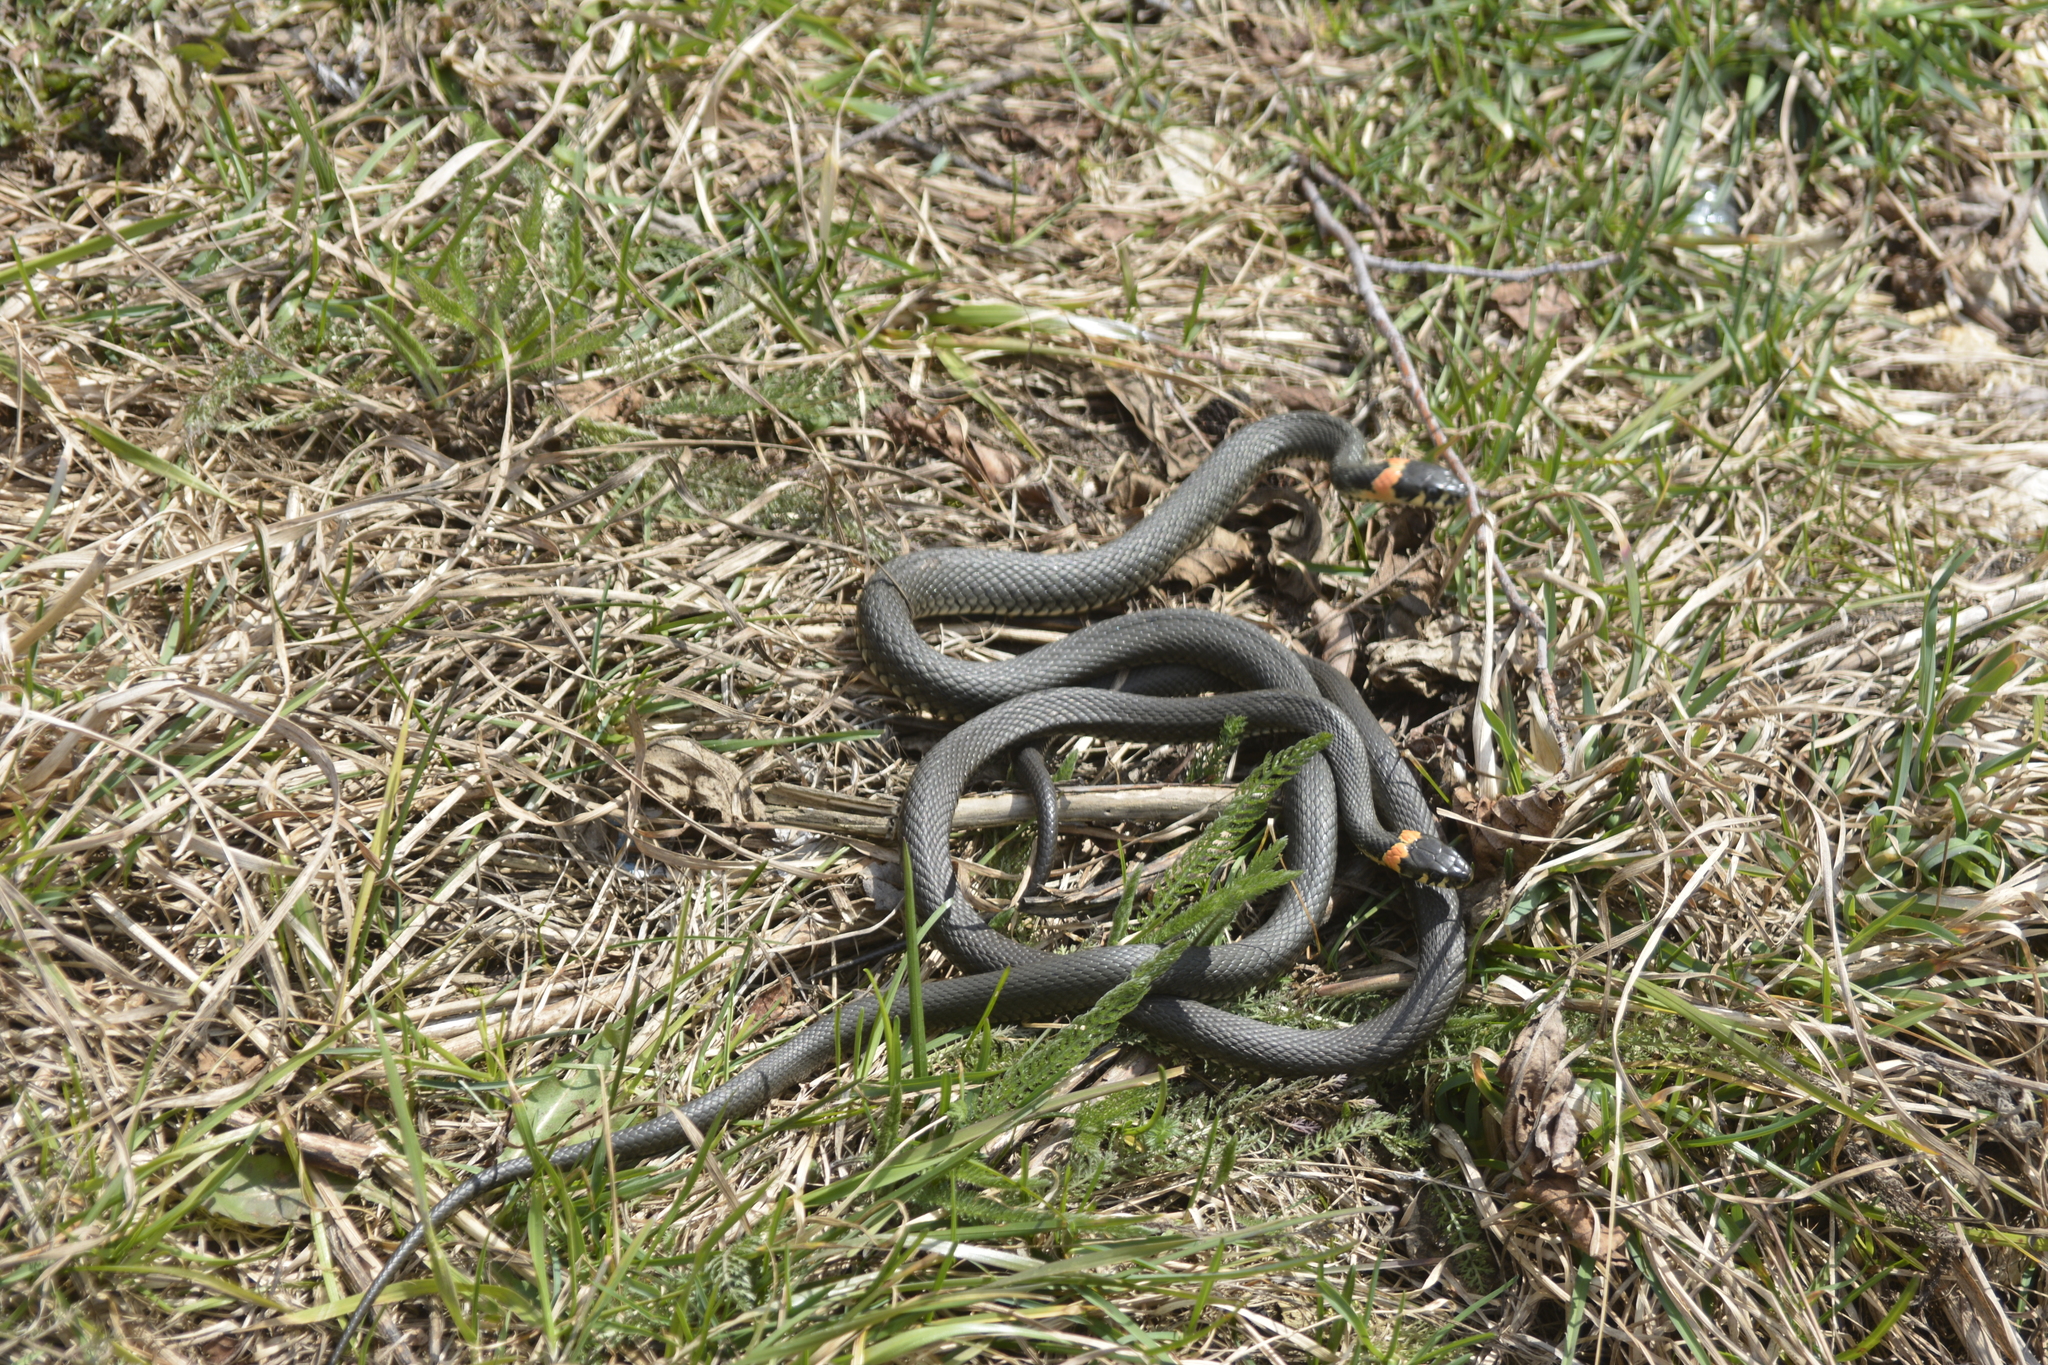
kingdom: Animalia
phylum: Chordata
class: Squamata
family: Colubridae
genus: Natrix
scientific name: Natrix natrix
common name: Grass snake
